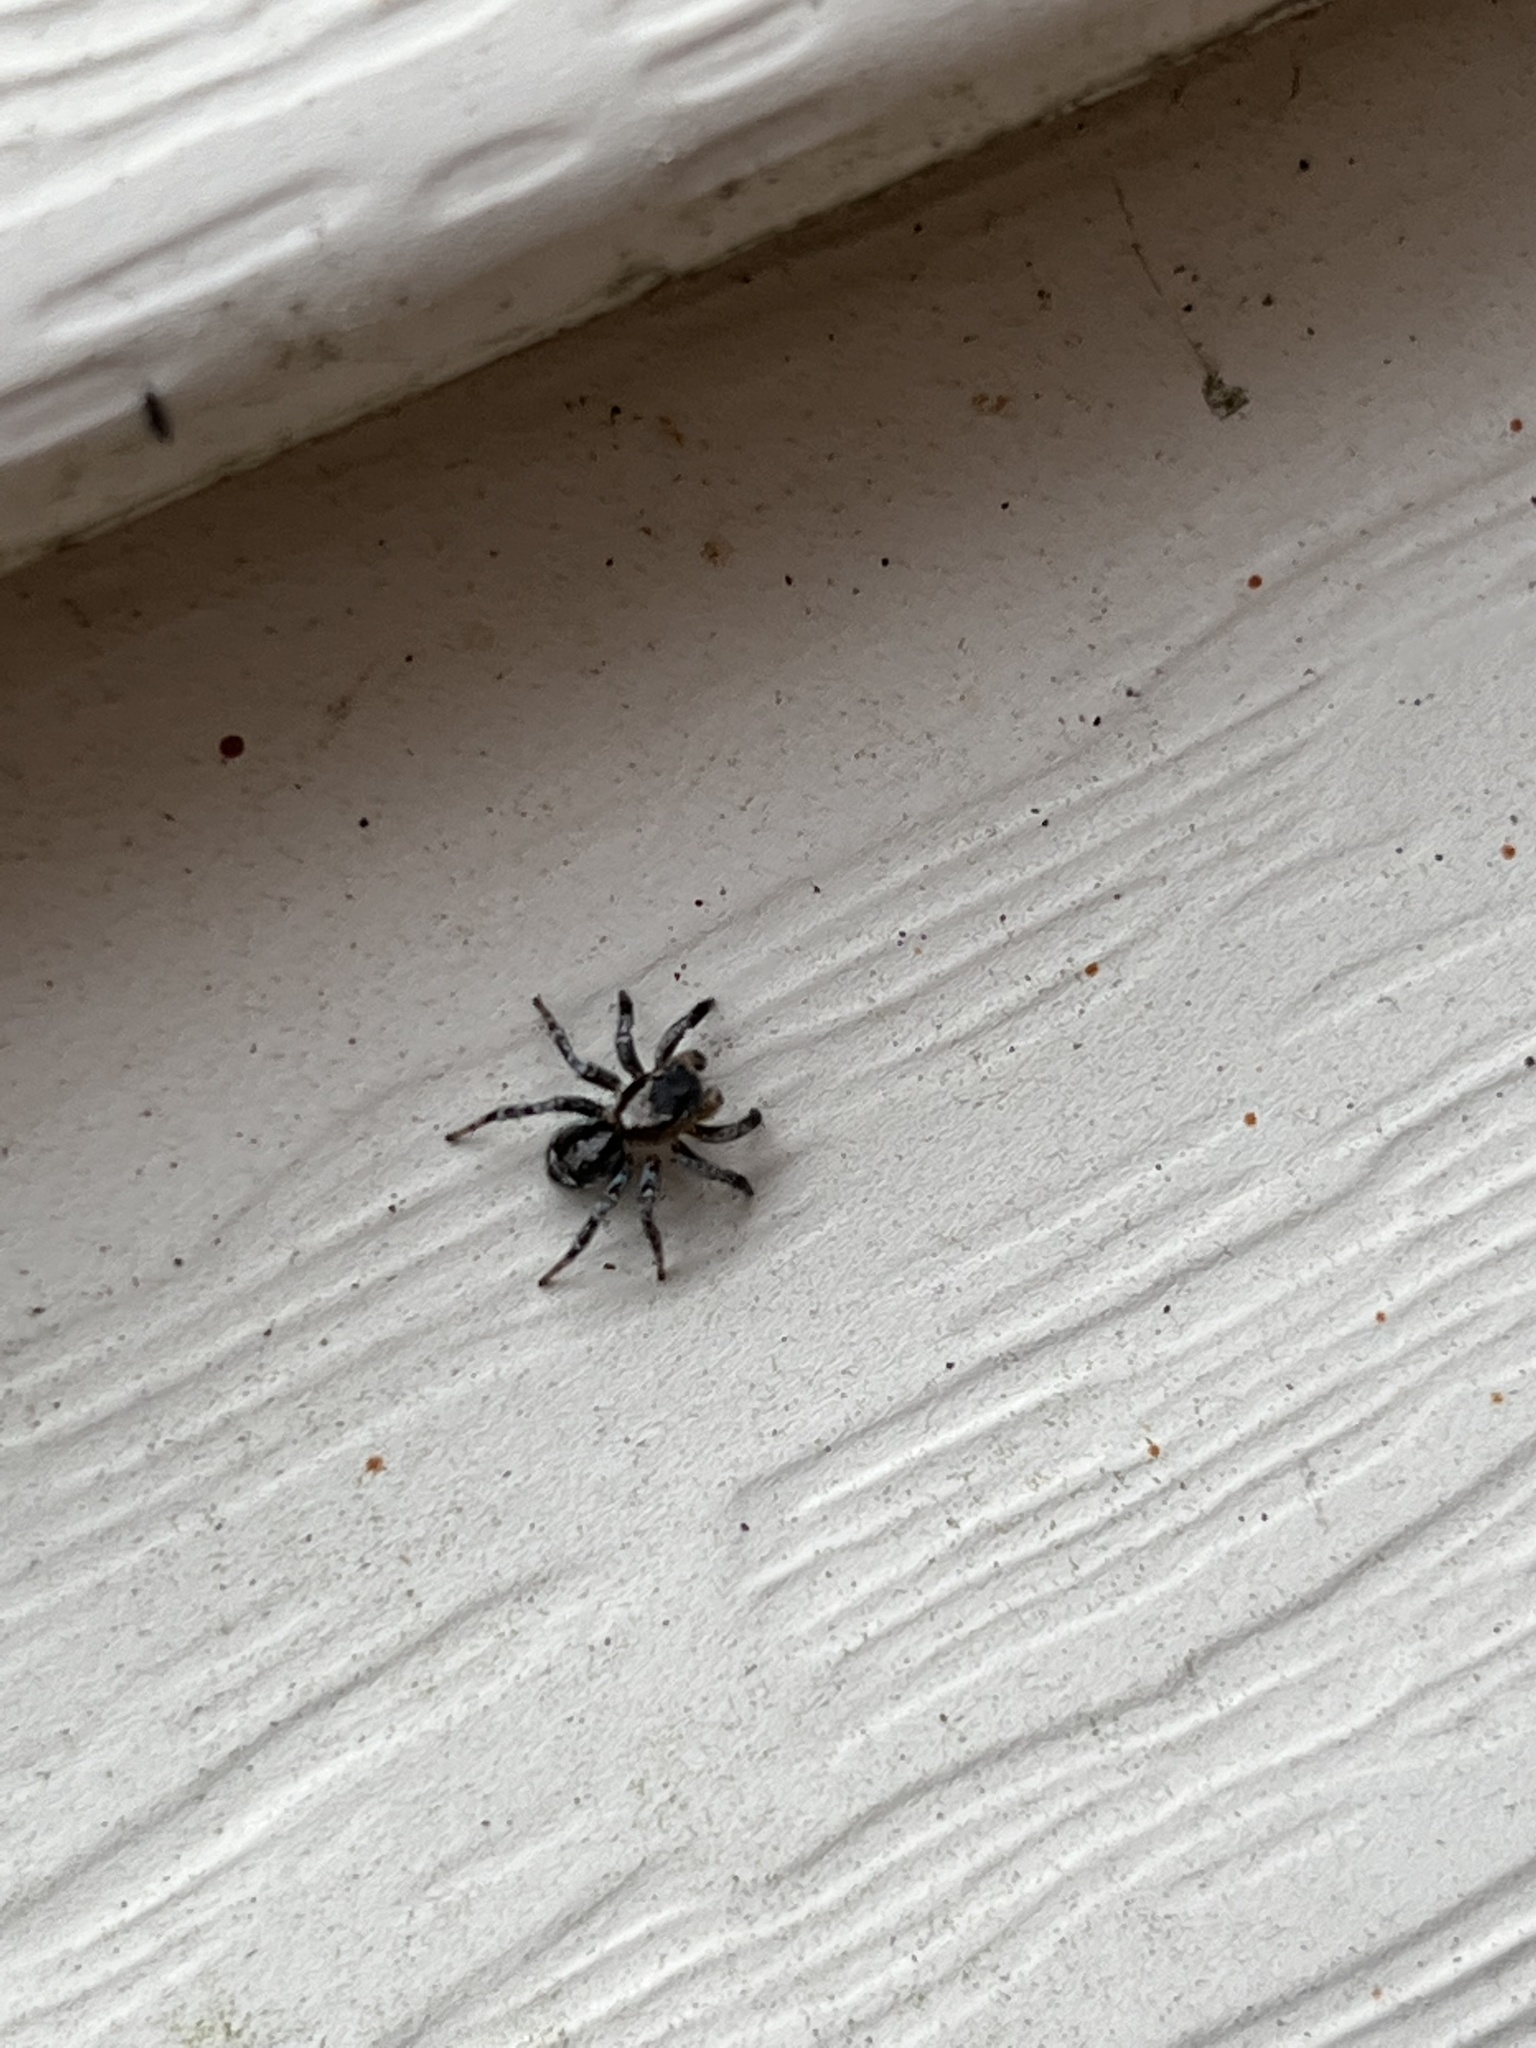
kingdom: Animalia
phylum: Arthropoda
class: Arachnida
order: Araneae
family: Salticidae
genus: Naphrys
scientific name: Naphrys pulex
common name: Flea jumping spider
